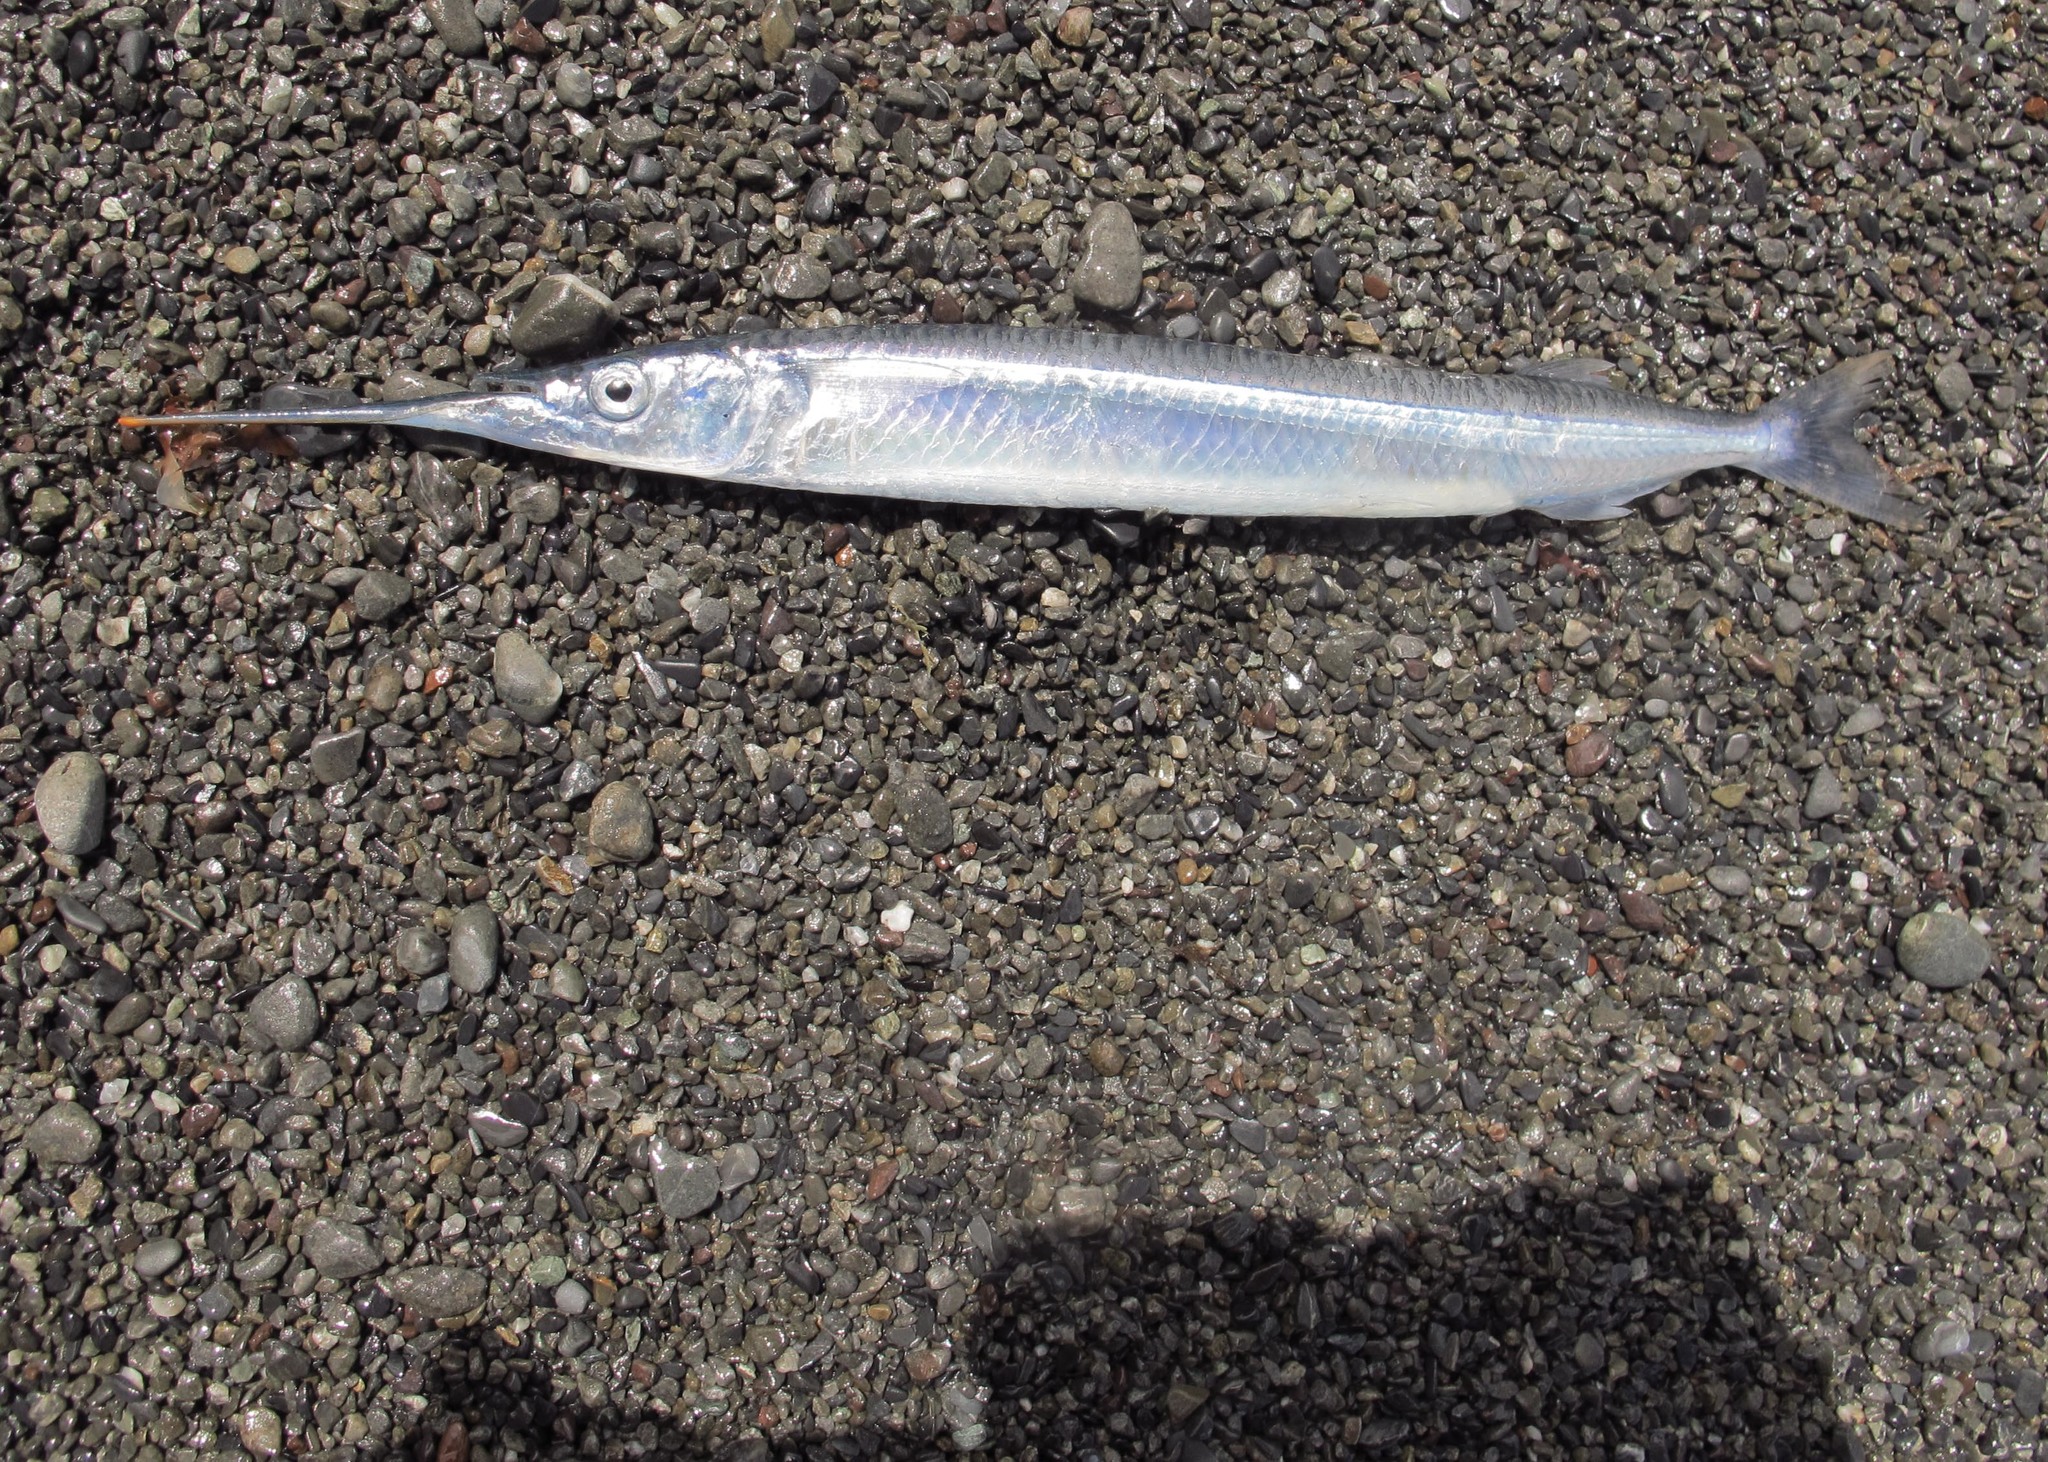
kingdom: Animalia
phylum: Chordata
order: Beloniformes
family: Hemiramphidae
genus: Hyporhamphus
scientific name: Hyporhamphus ihi
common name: Garfish
